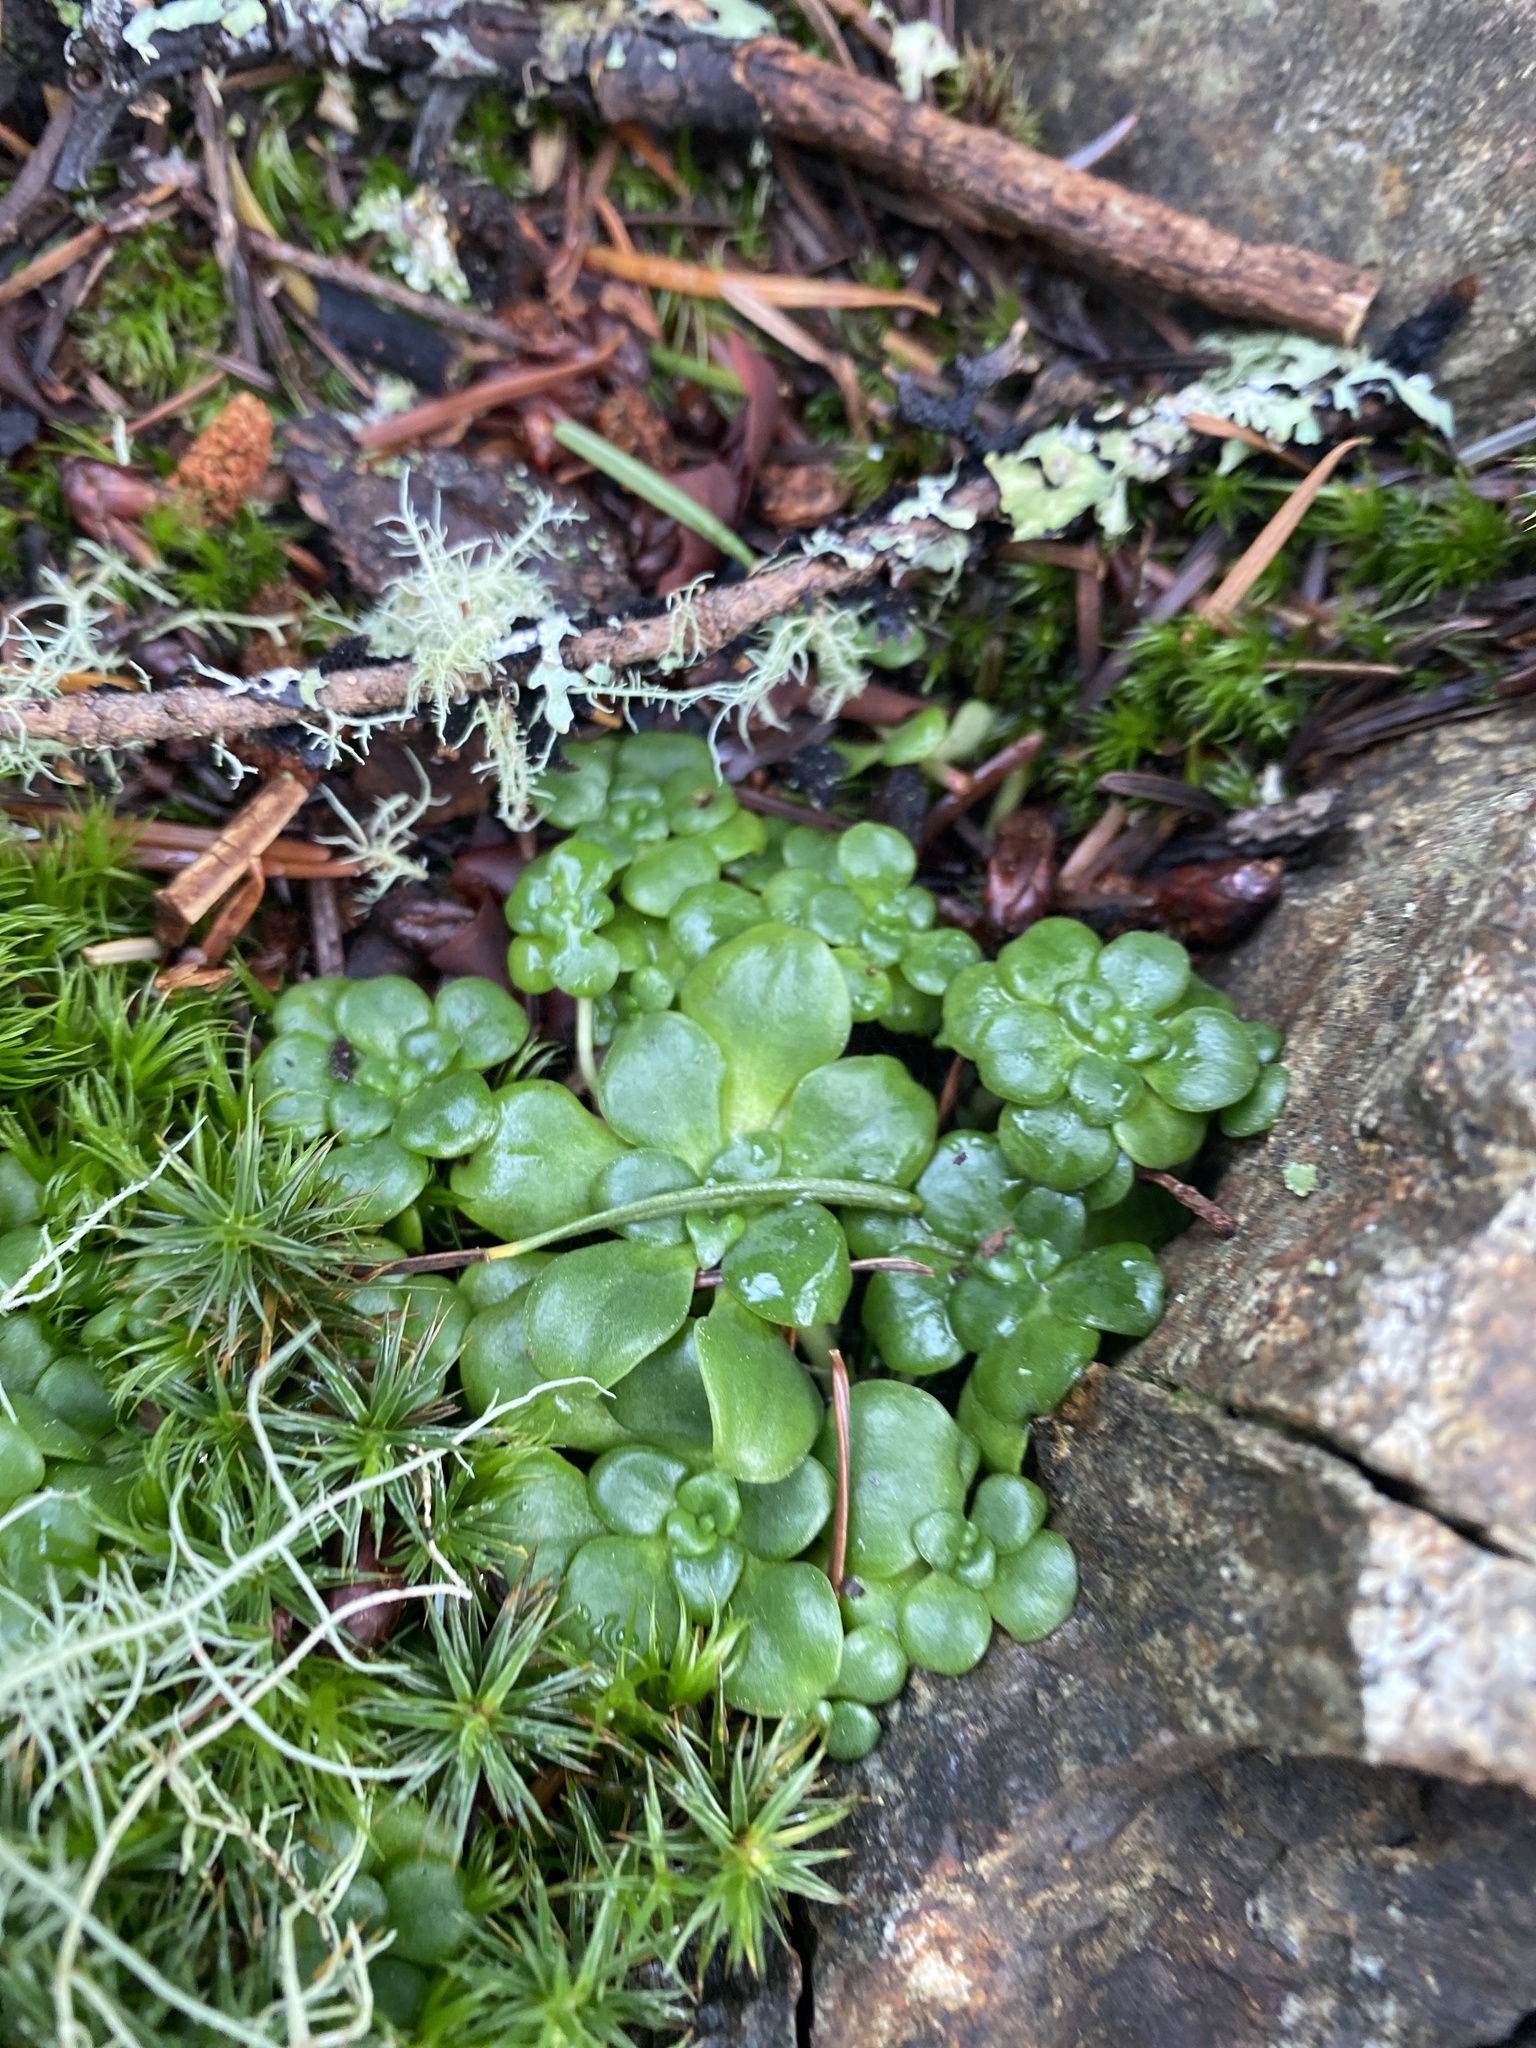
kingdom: Plantae
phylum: Tracheophyta
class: Magnoliopsida
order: Saxifragales
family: Crassulaceae
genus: Sedum
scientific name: Sedum spathulifolium
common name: Colorado stonecrop
